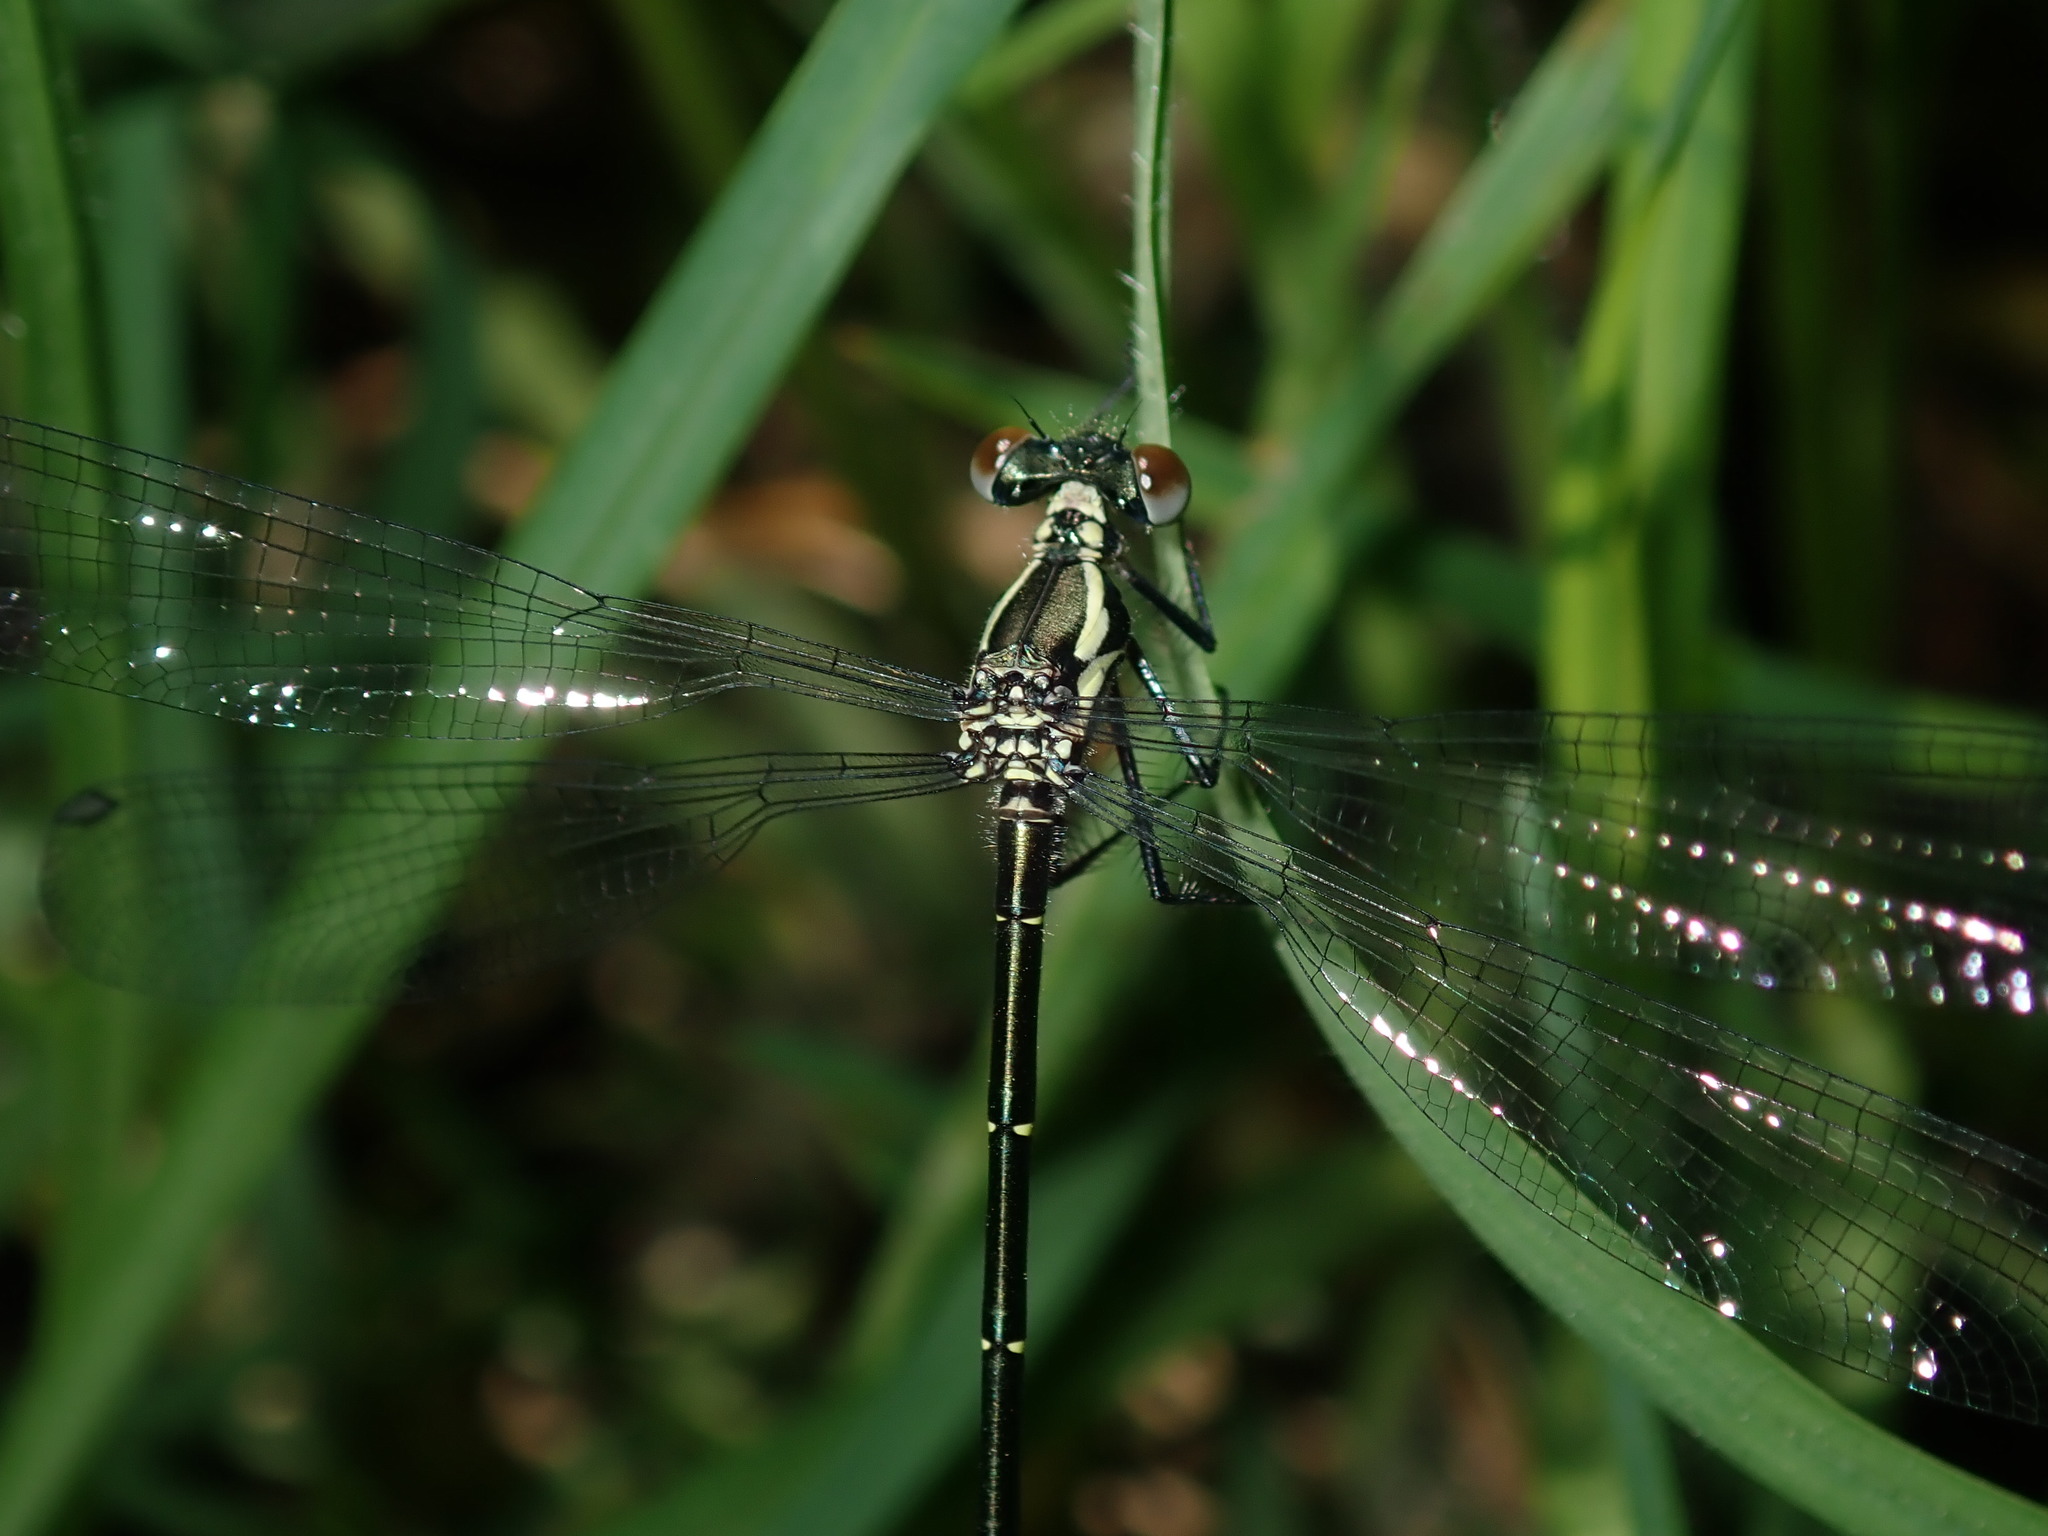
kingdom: Animalia
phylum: Arthropoda
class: Insecta
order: Odonata
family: Argiolestidae
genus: Austroargiolestes
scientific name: Austroargiolestes icteromelas
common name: Common flatwing
